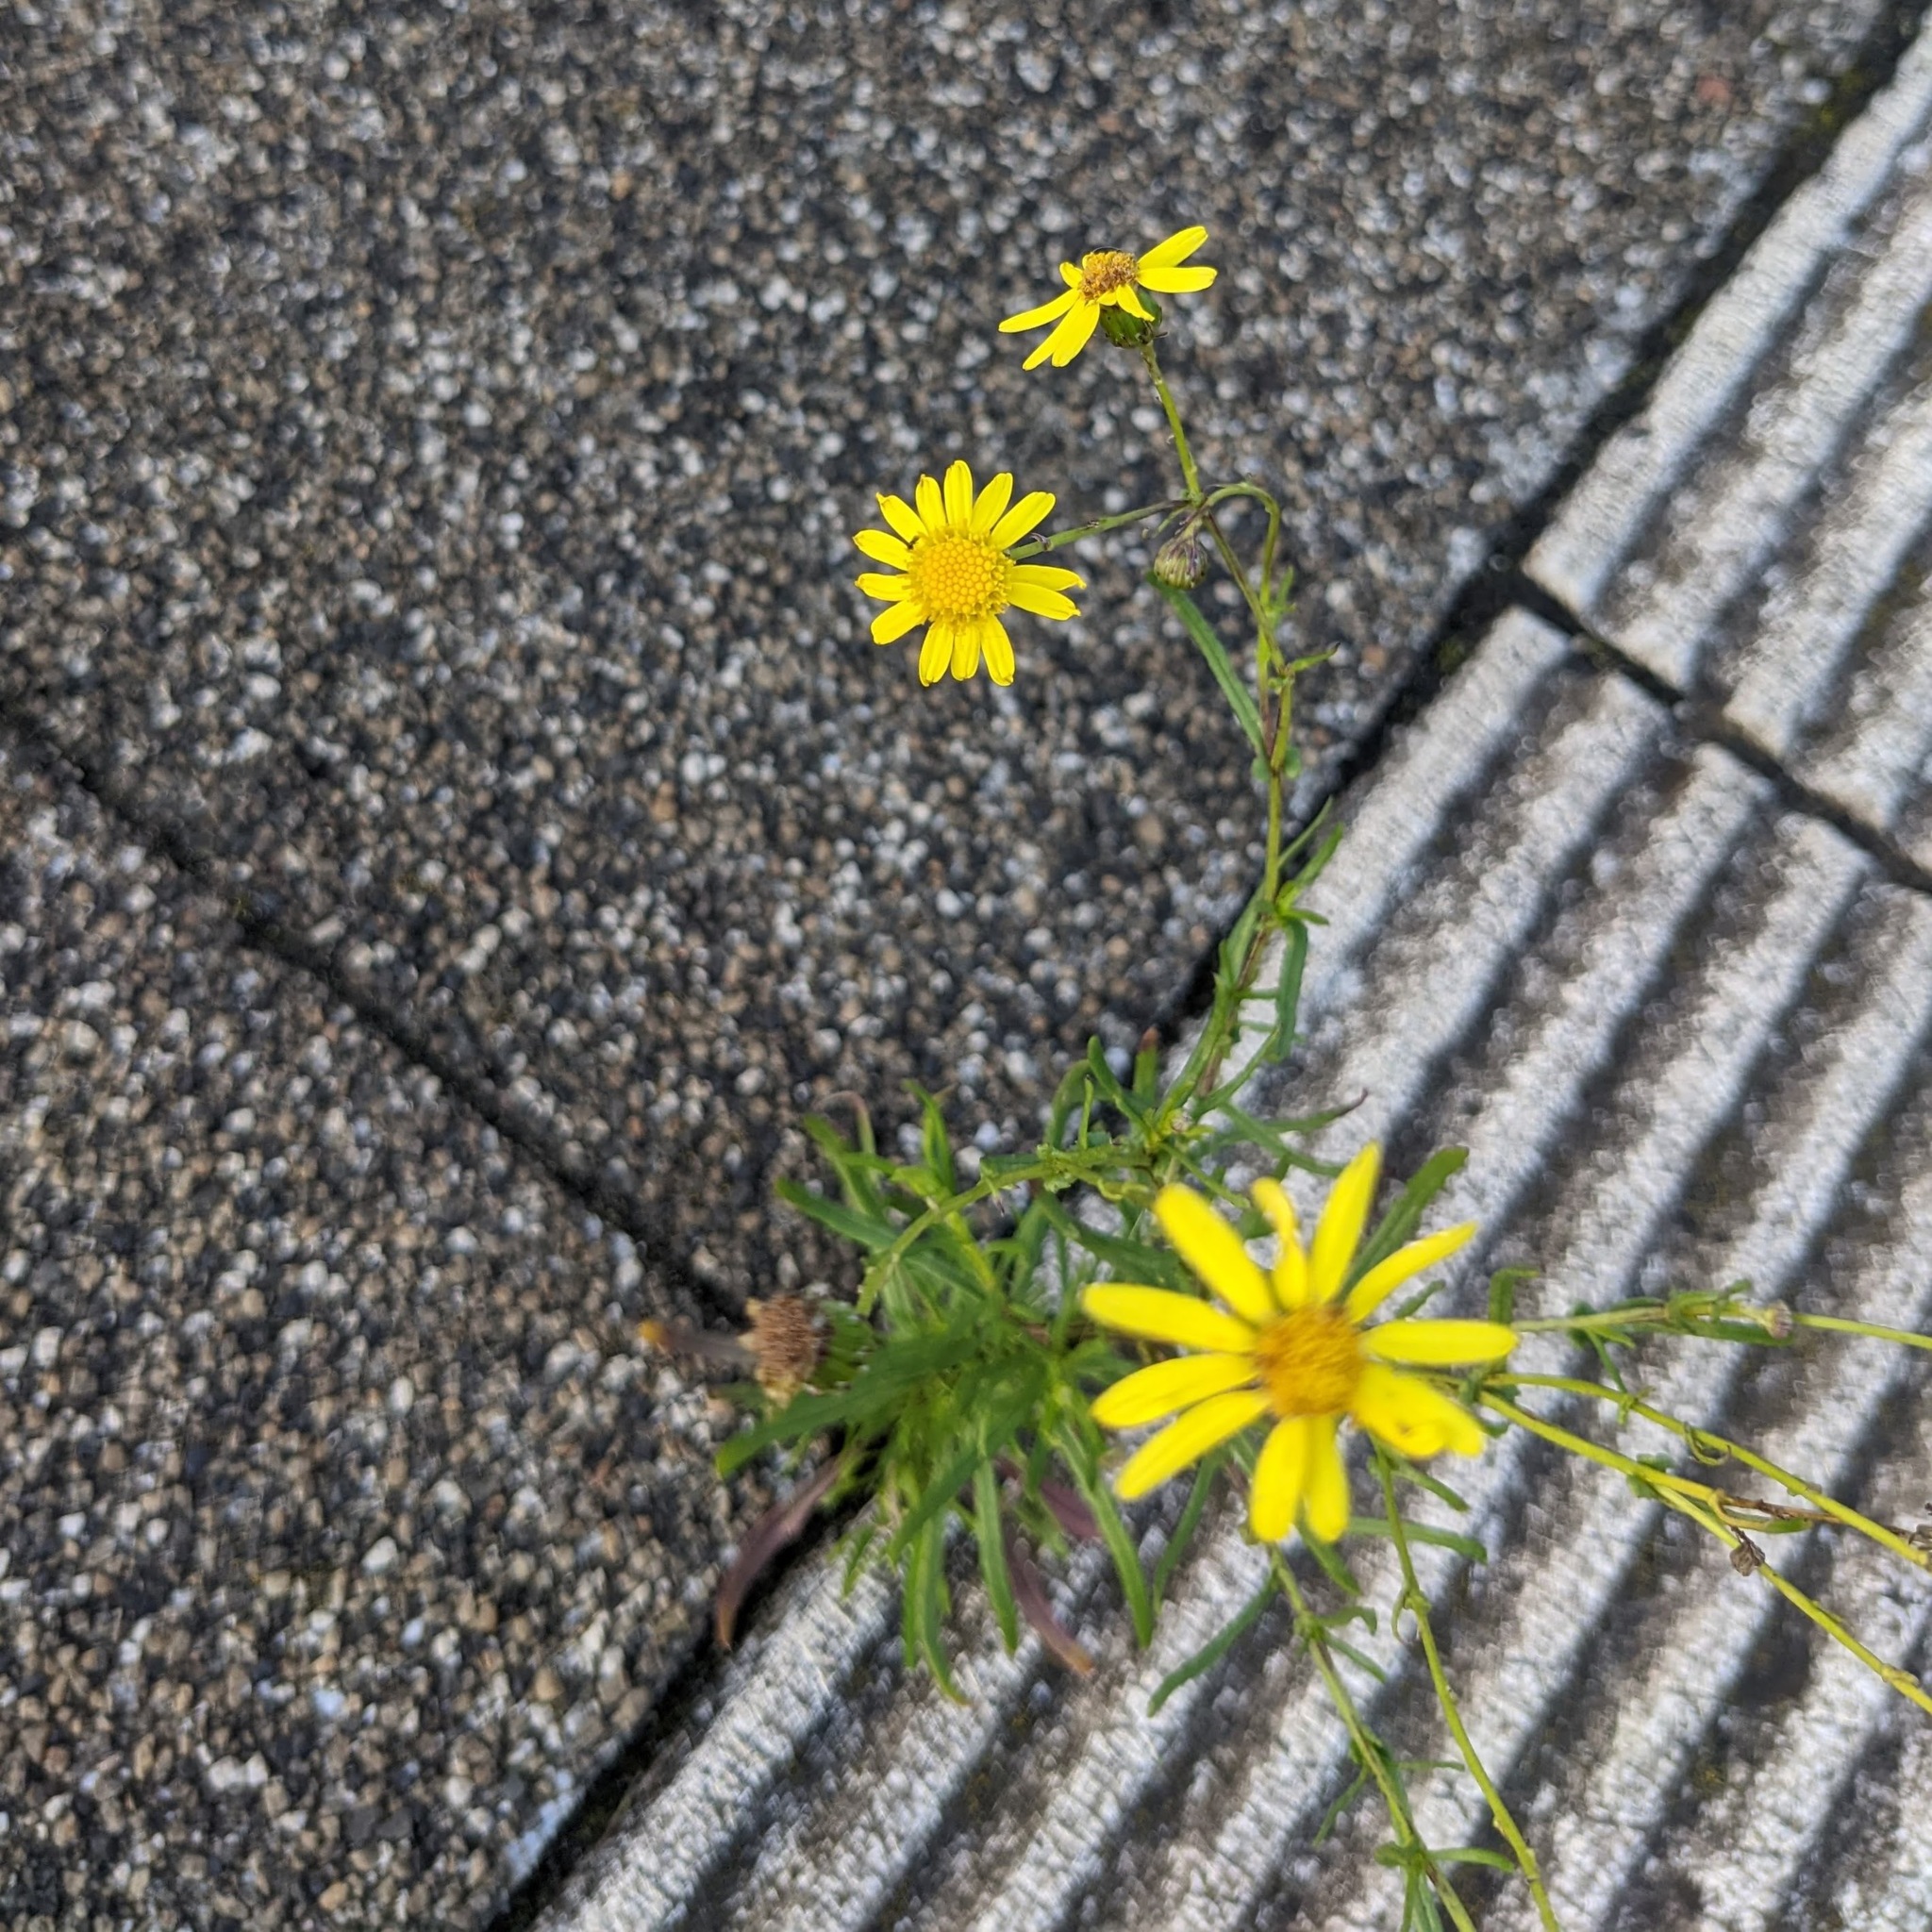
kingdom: Plantae
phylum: Tracheophyta
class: Magnoliopsida
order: Asterales
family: Asteraceae
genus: Senecio
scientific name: Senecio inaequidens
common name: Narrow-leaved ragwort
